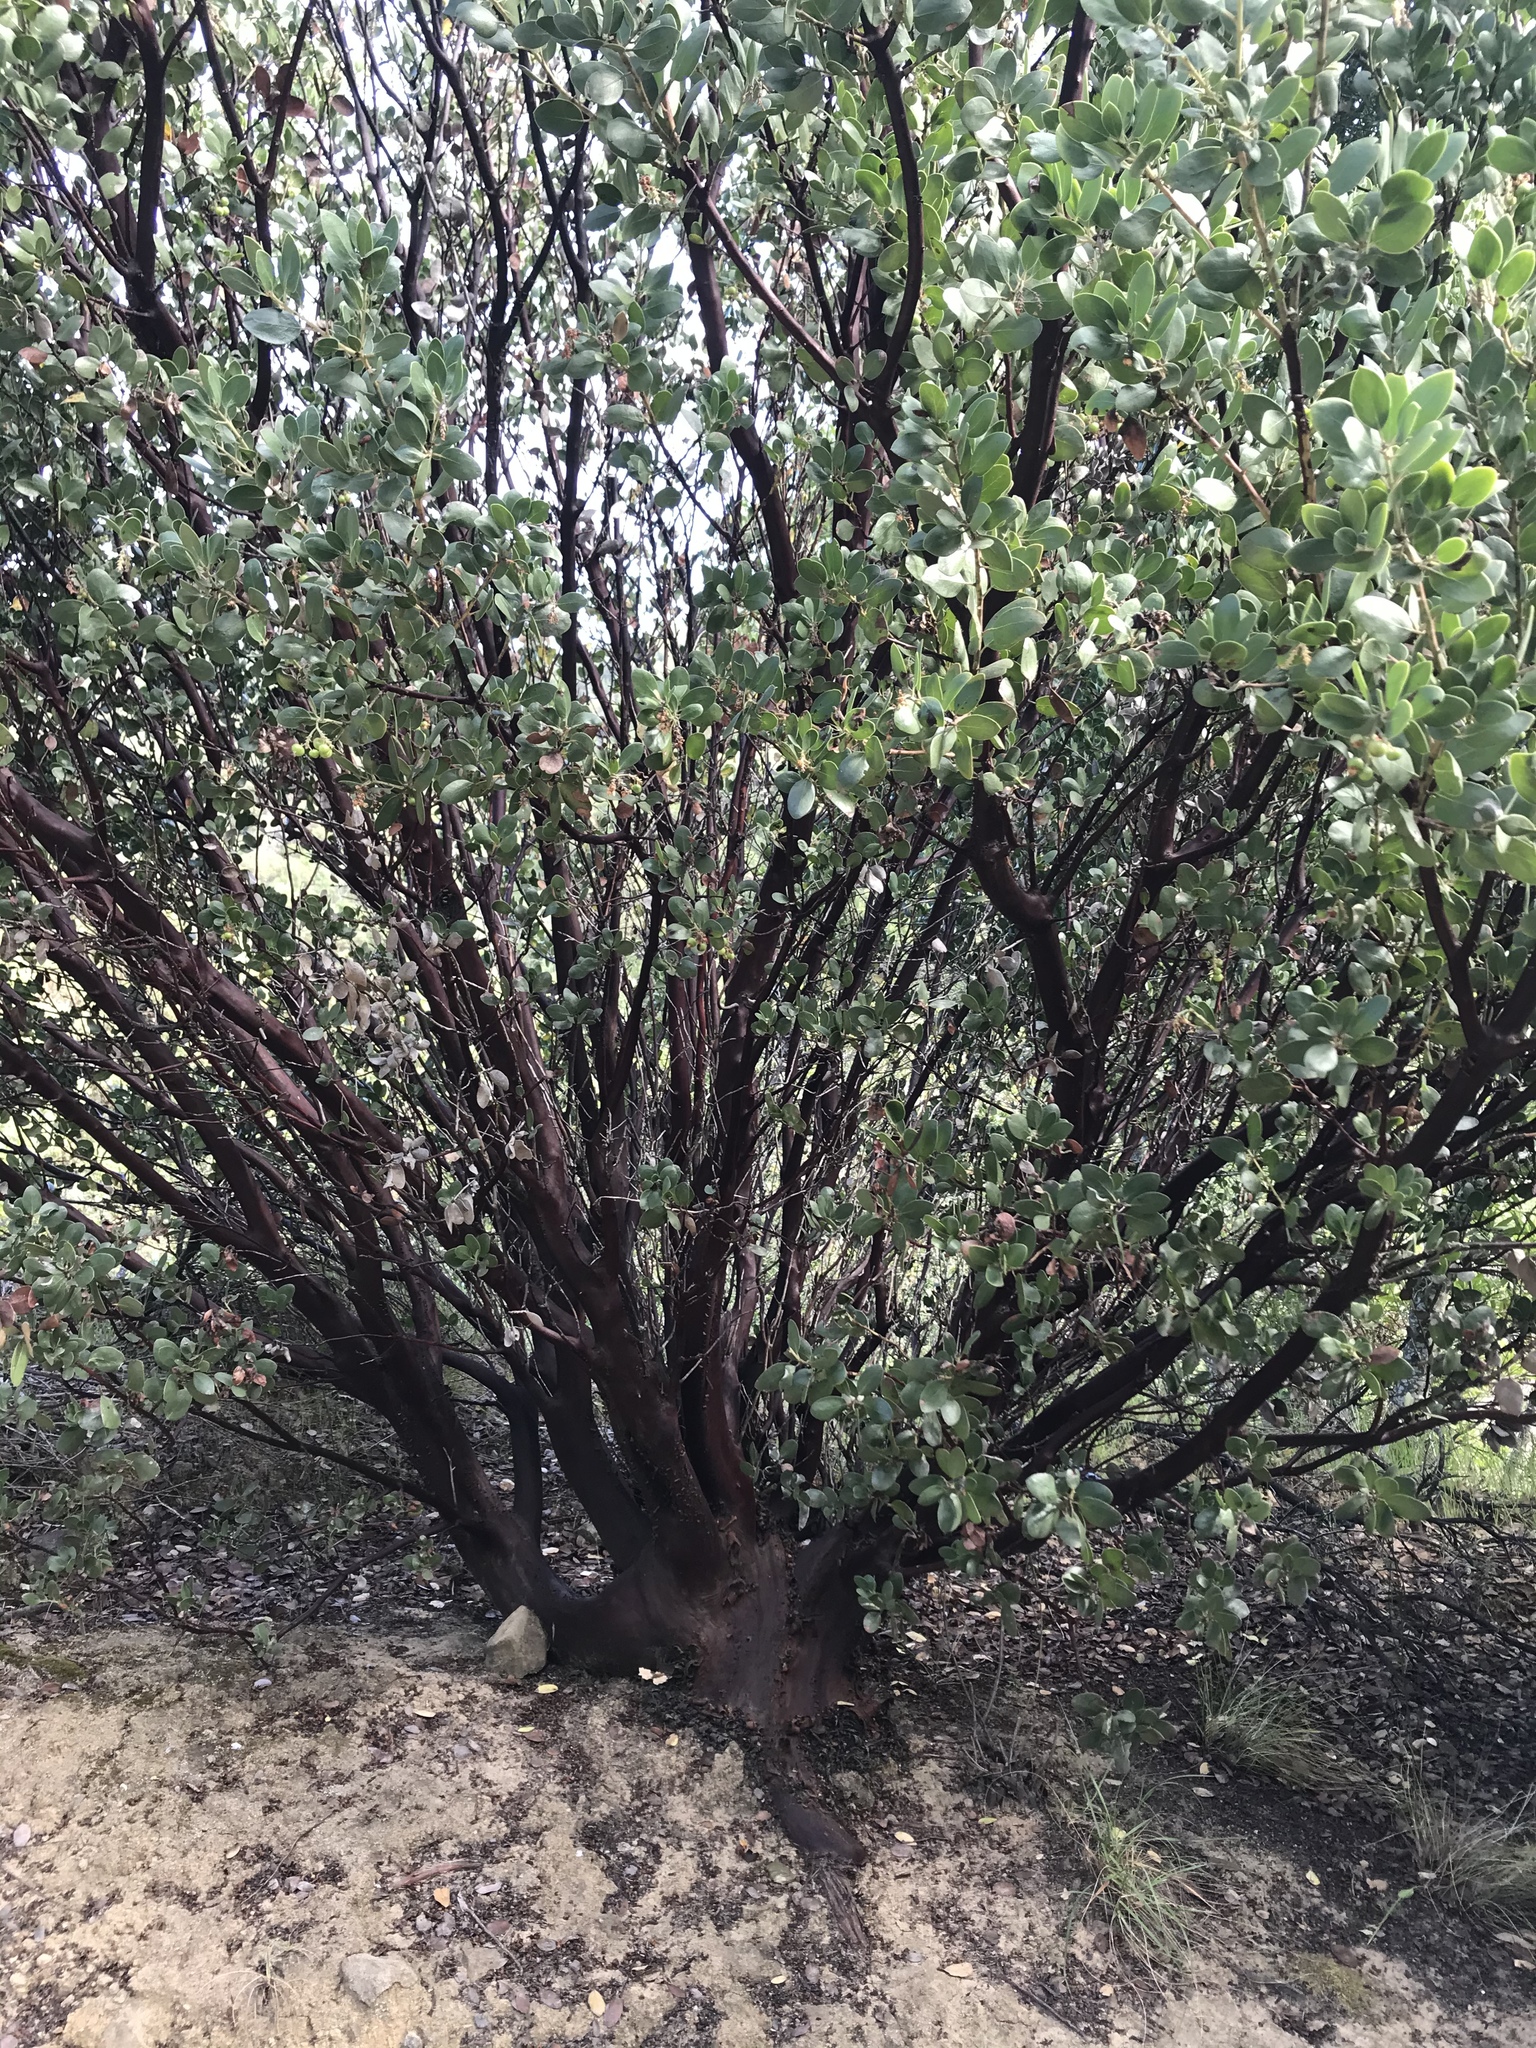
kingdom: Plantae
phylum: Tracheophyta
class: Magnoliopsida
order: Ericales
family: Ericaceae
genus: Arctostaphylos
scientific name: Arctostaphylos manzanita
